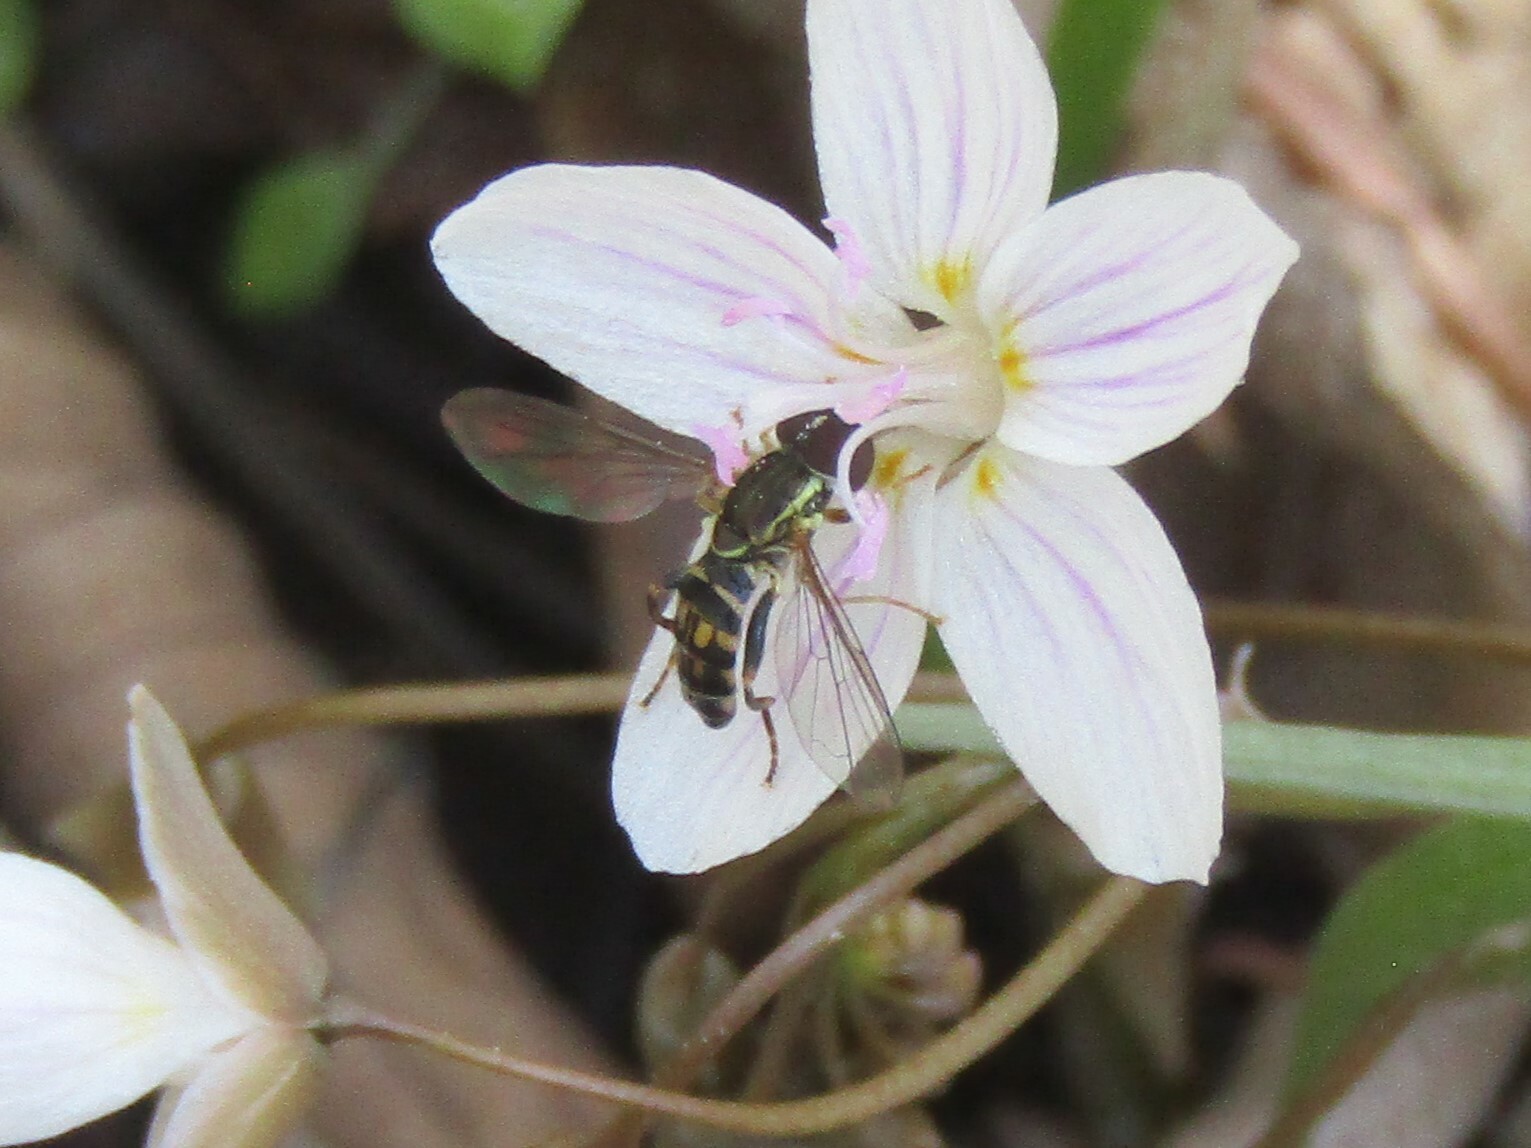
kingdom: Animalia
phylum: Arthropoda
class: Insecta
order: Diptera
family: Syrphidae
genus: Toxomerus
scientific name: Toxomerus geminatus
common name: Eastern calligrapher
